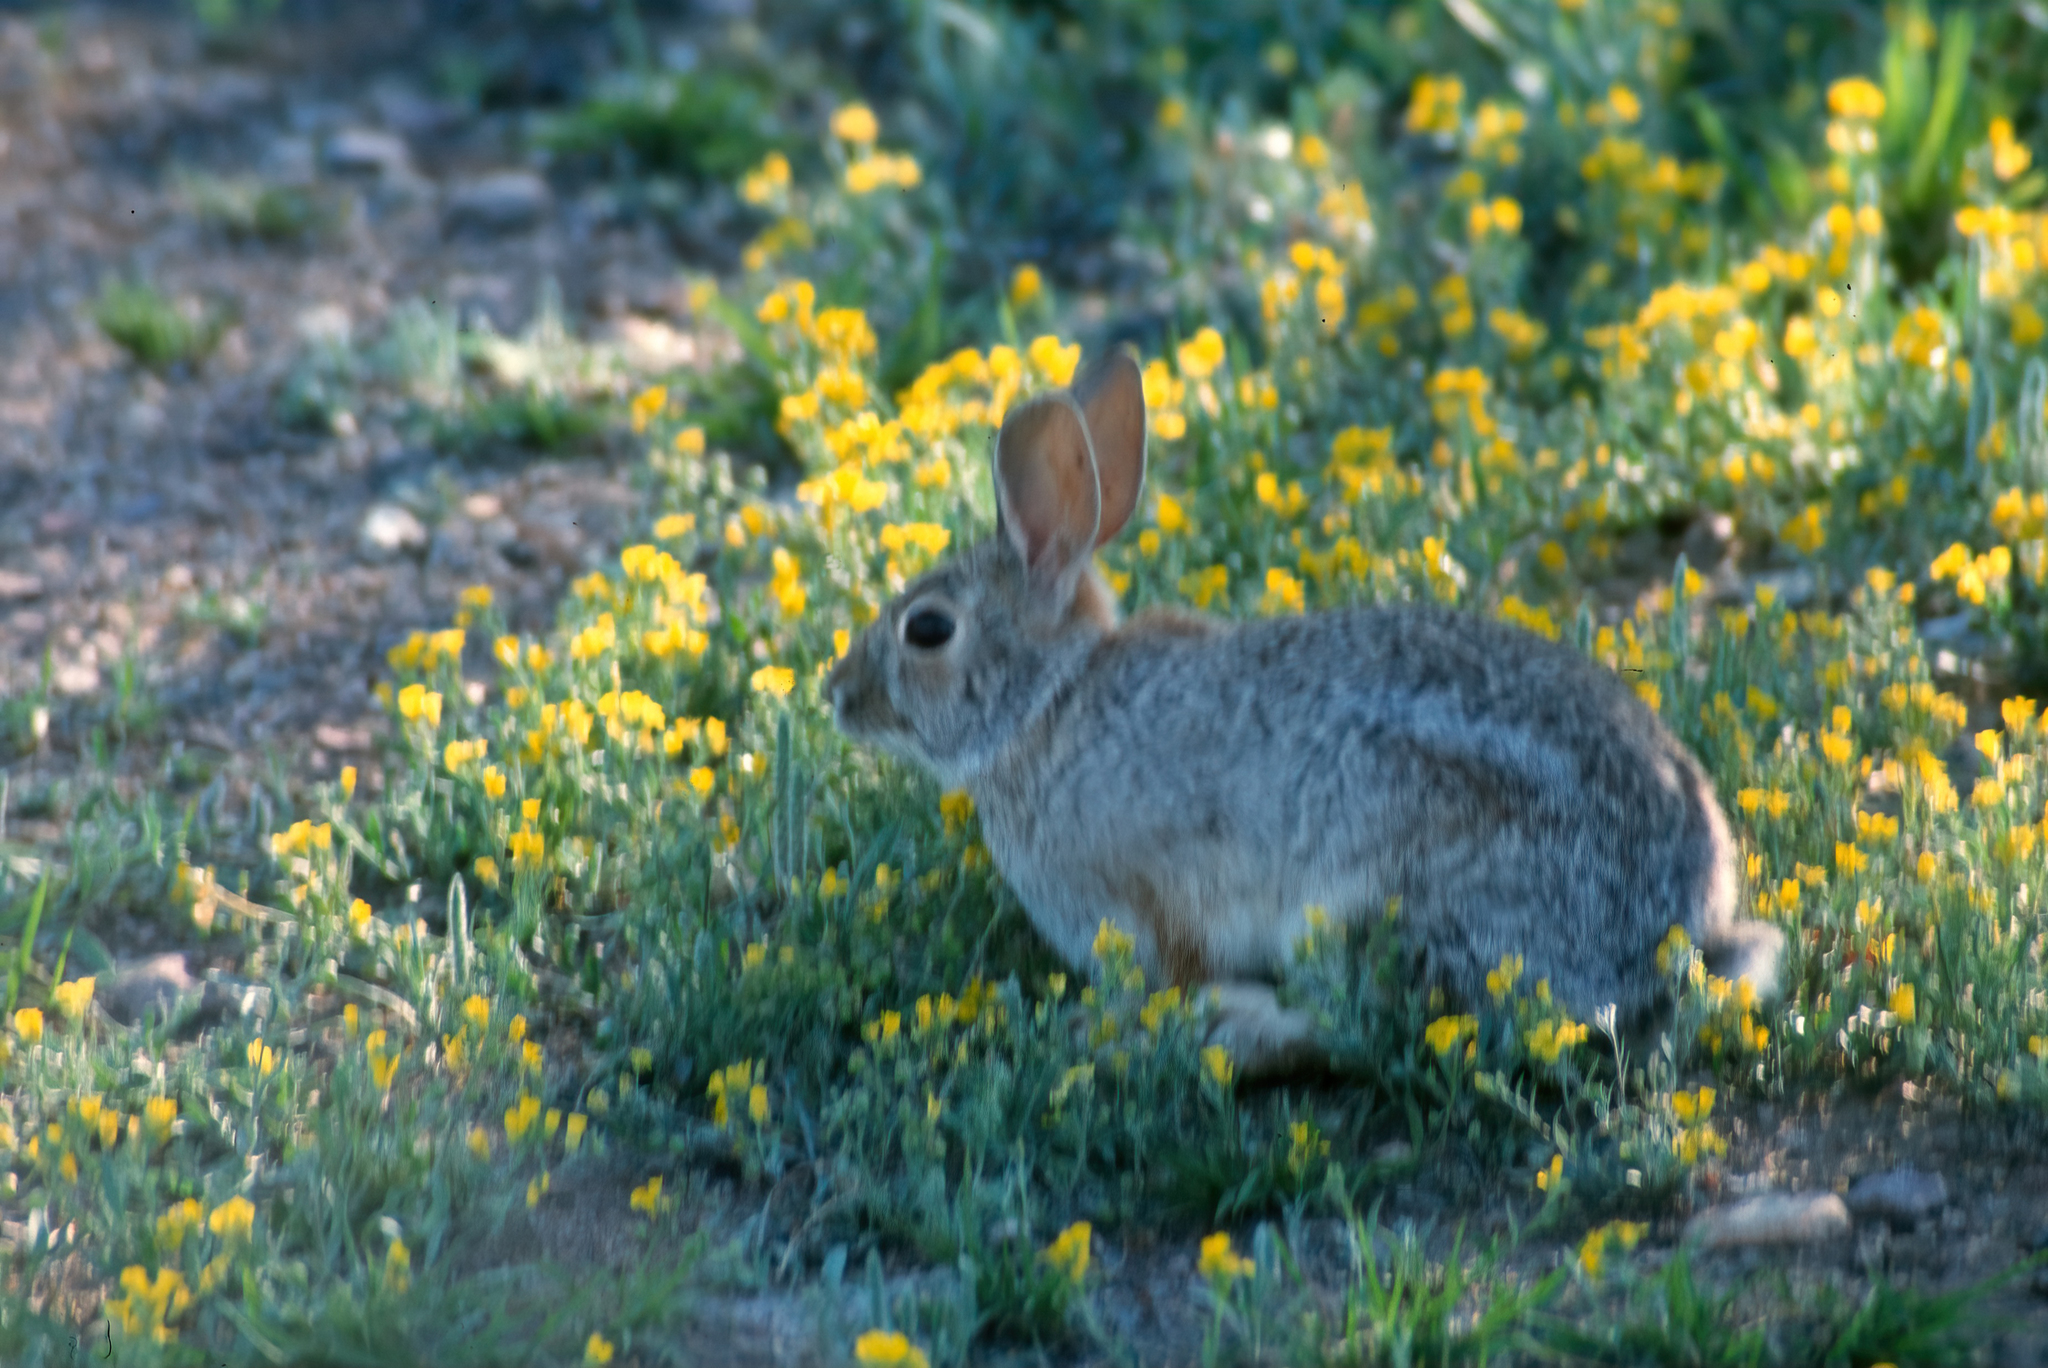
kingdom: Animalia
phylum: Chordata
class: Mammalia
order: Lagomorpha
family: Leporidae
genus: Sylvilagus
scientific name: Sylvilagus audubonii
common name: Desert cottontail
